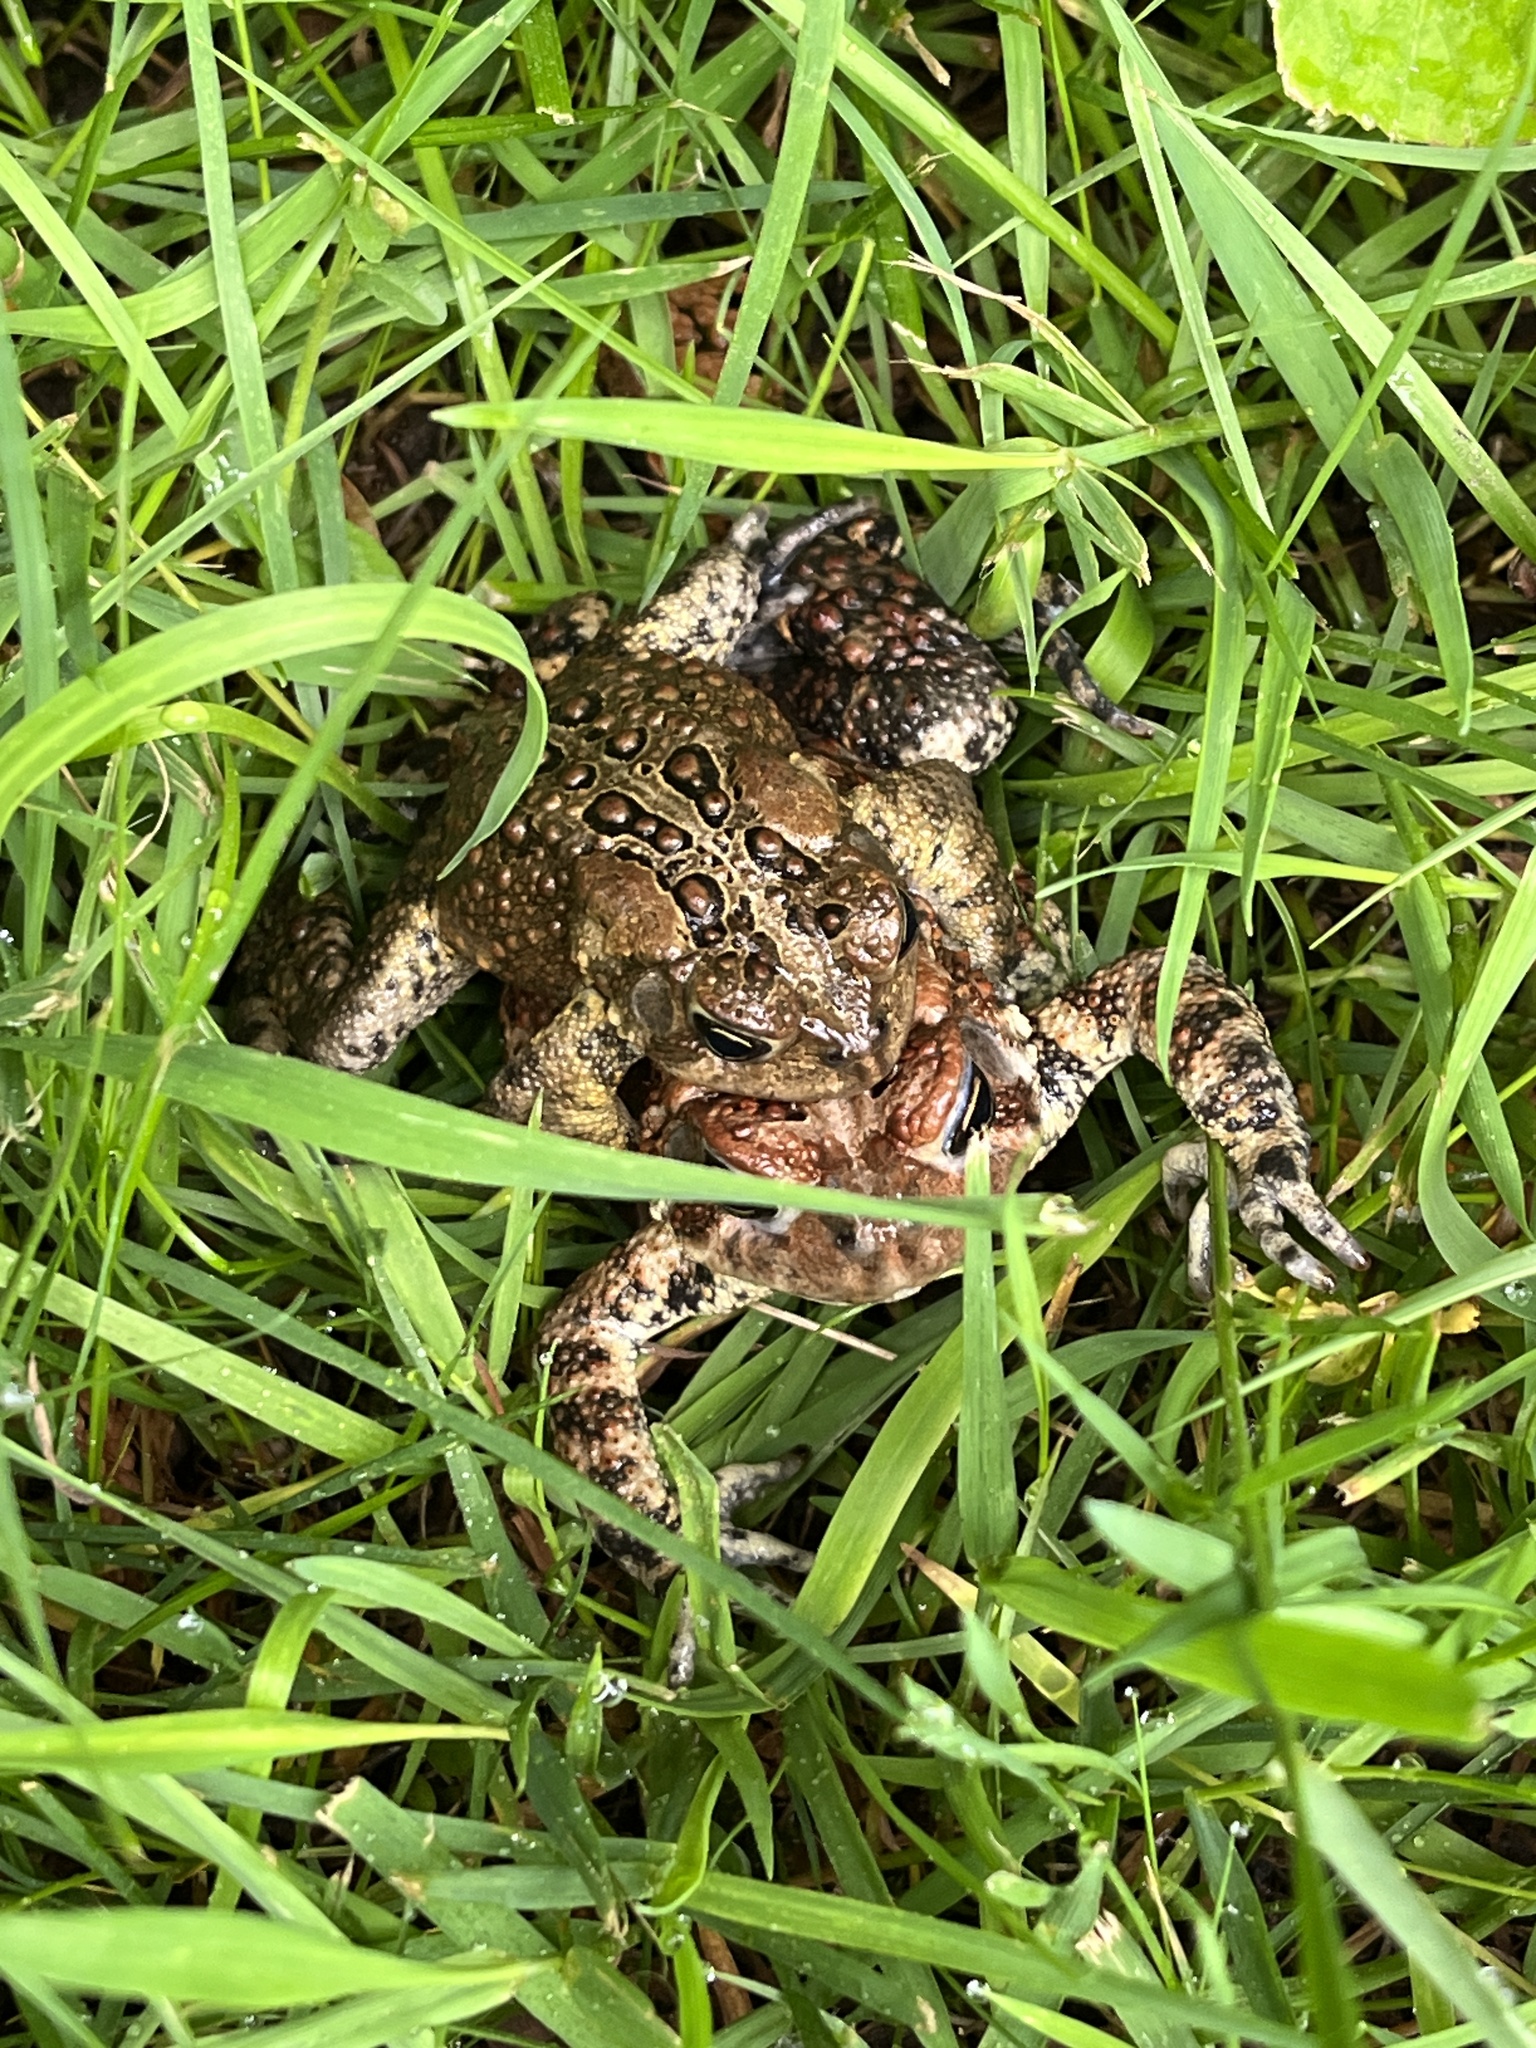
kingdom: Animalia
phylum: Chordata
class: Amphibia
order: Anura
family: Bufonidae
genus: Anaxyrus
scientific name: Anaxyrus americanus
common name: American toad
